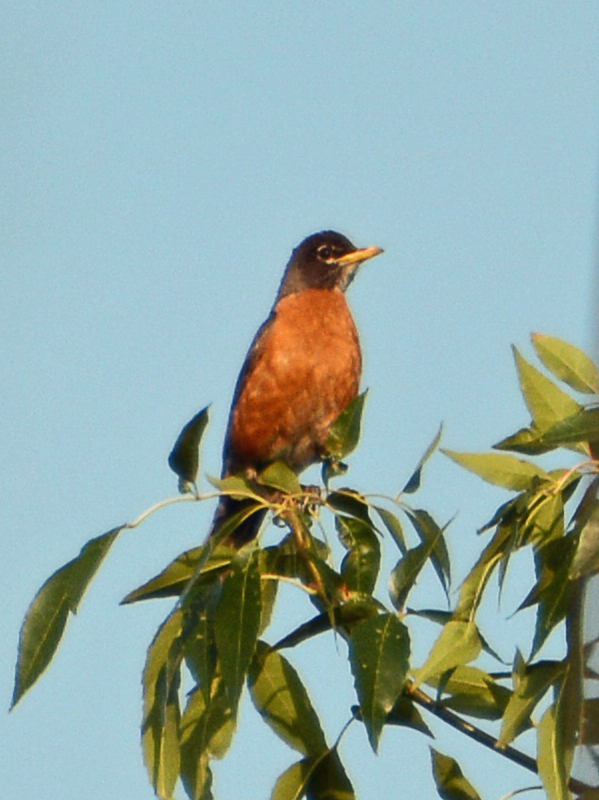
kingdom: Animalia
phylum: Chordata
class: Aves
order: Passeriformes
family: Turdidae
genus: Turdus
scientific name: Turdus migratorius
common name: American robin
